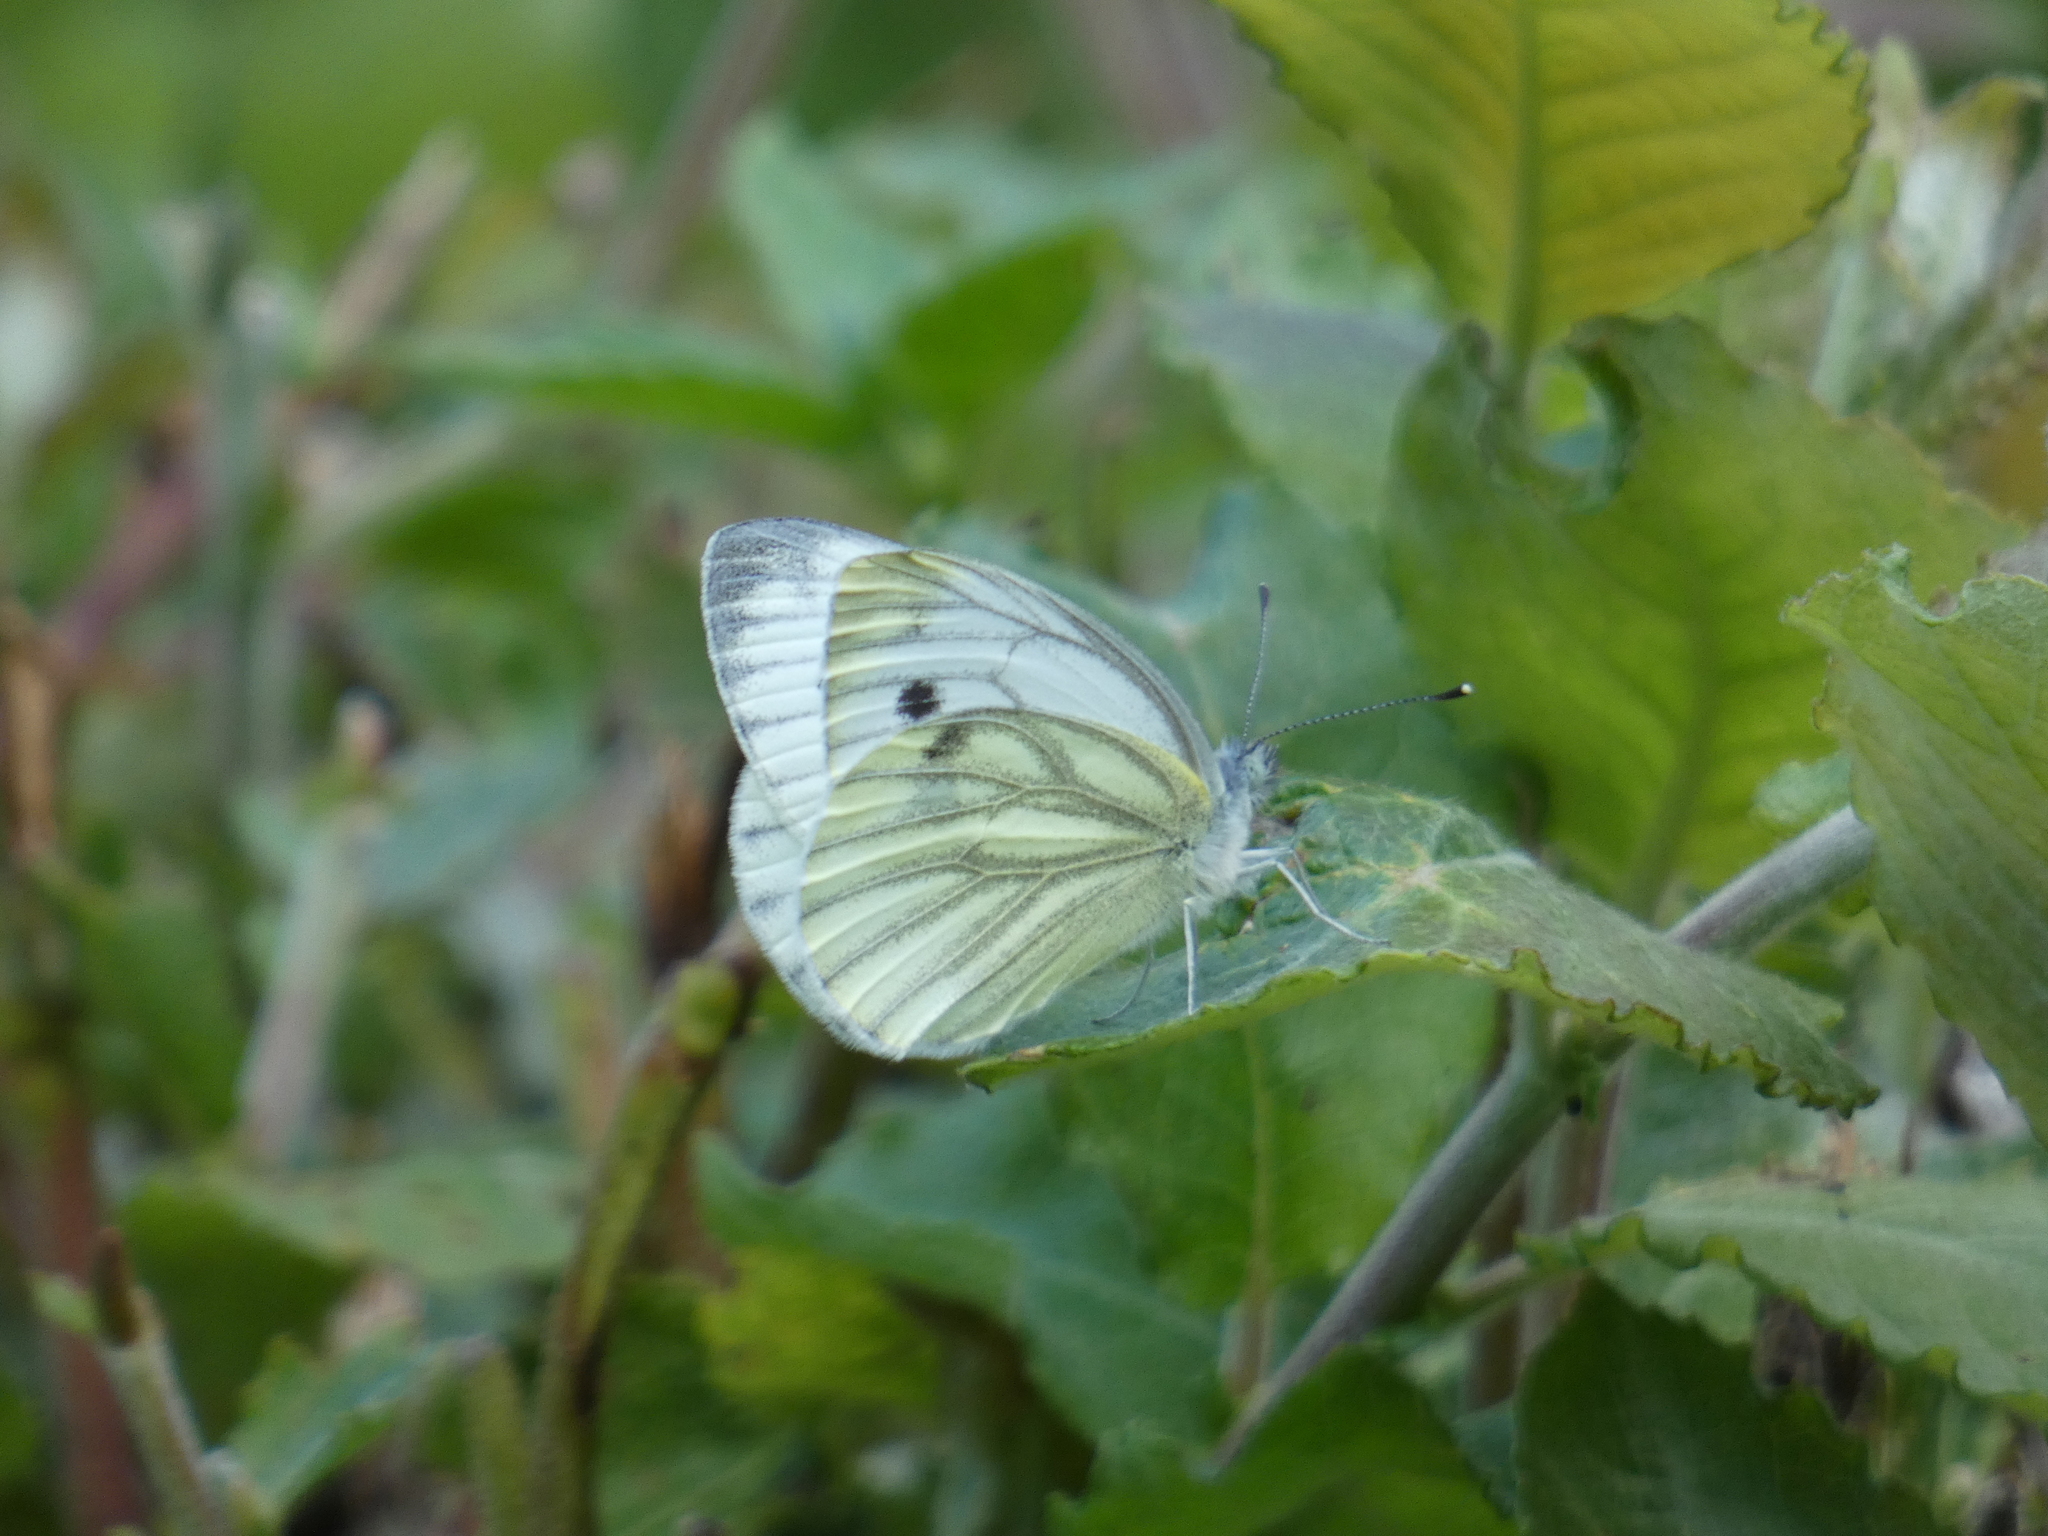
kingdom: Animalia
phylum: Arthropoda
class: Insecta
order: Lepidoptera
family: Pieridae
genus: Pieris
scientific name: Pieris napi
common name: Green-veined white
